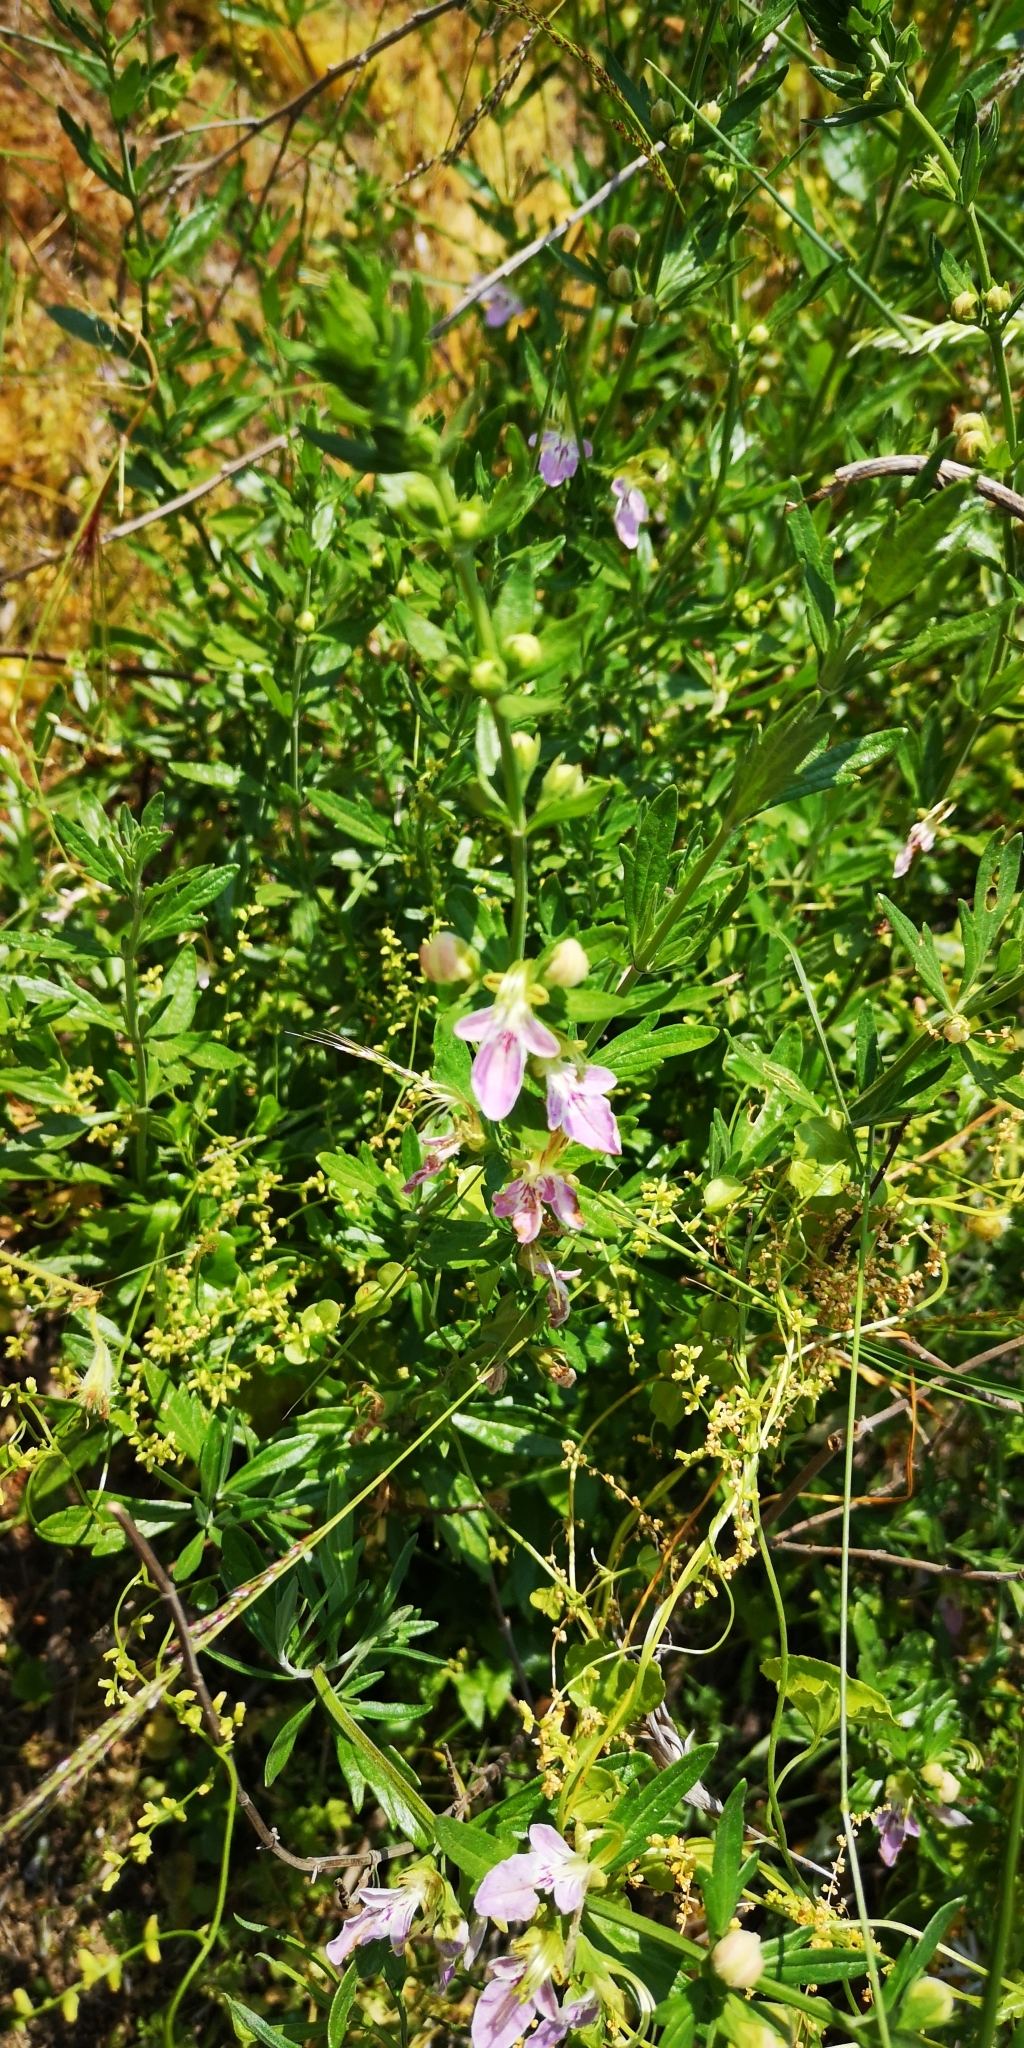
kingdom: Plantae
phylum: Tracheophyta
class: Magnoliopsida
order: Lamiales
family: Lamiaceae
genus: Teucrium
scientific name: Teucrium bicolor
